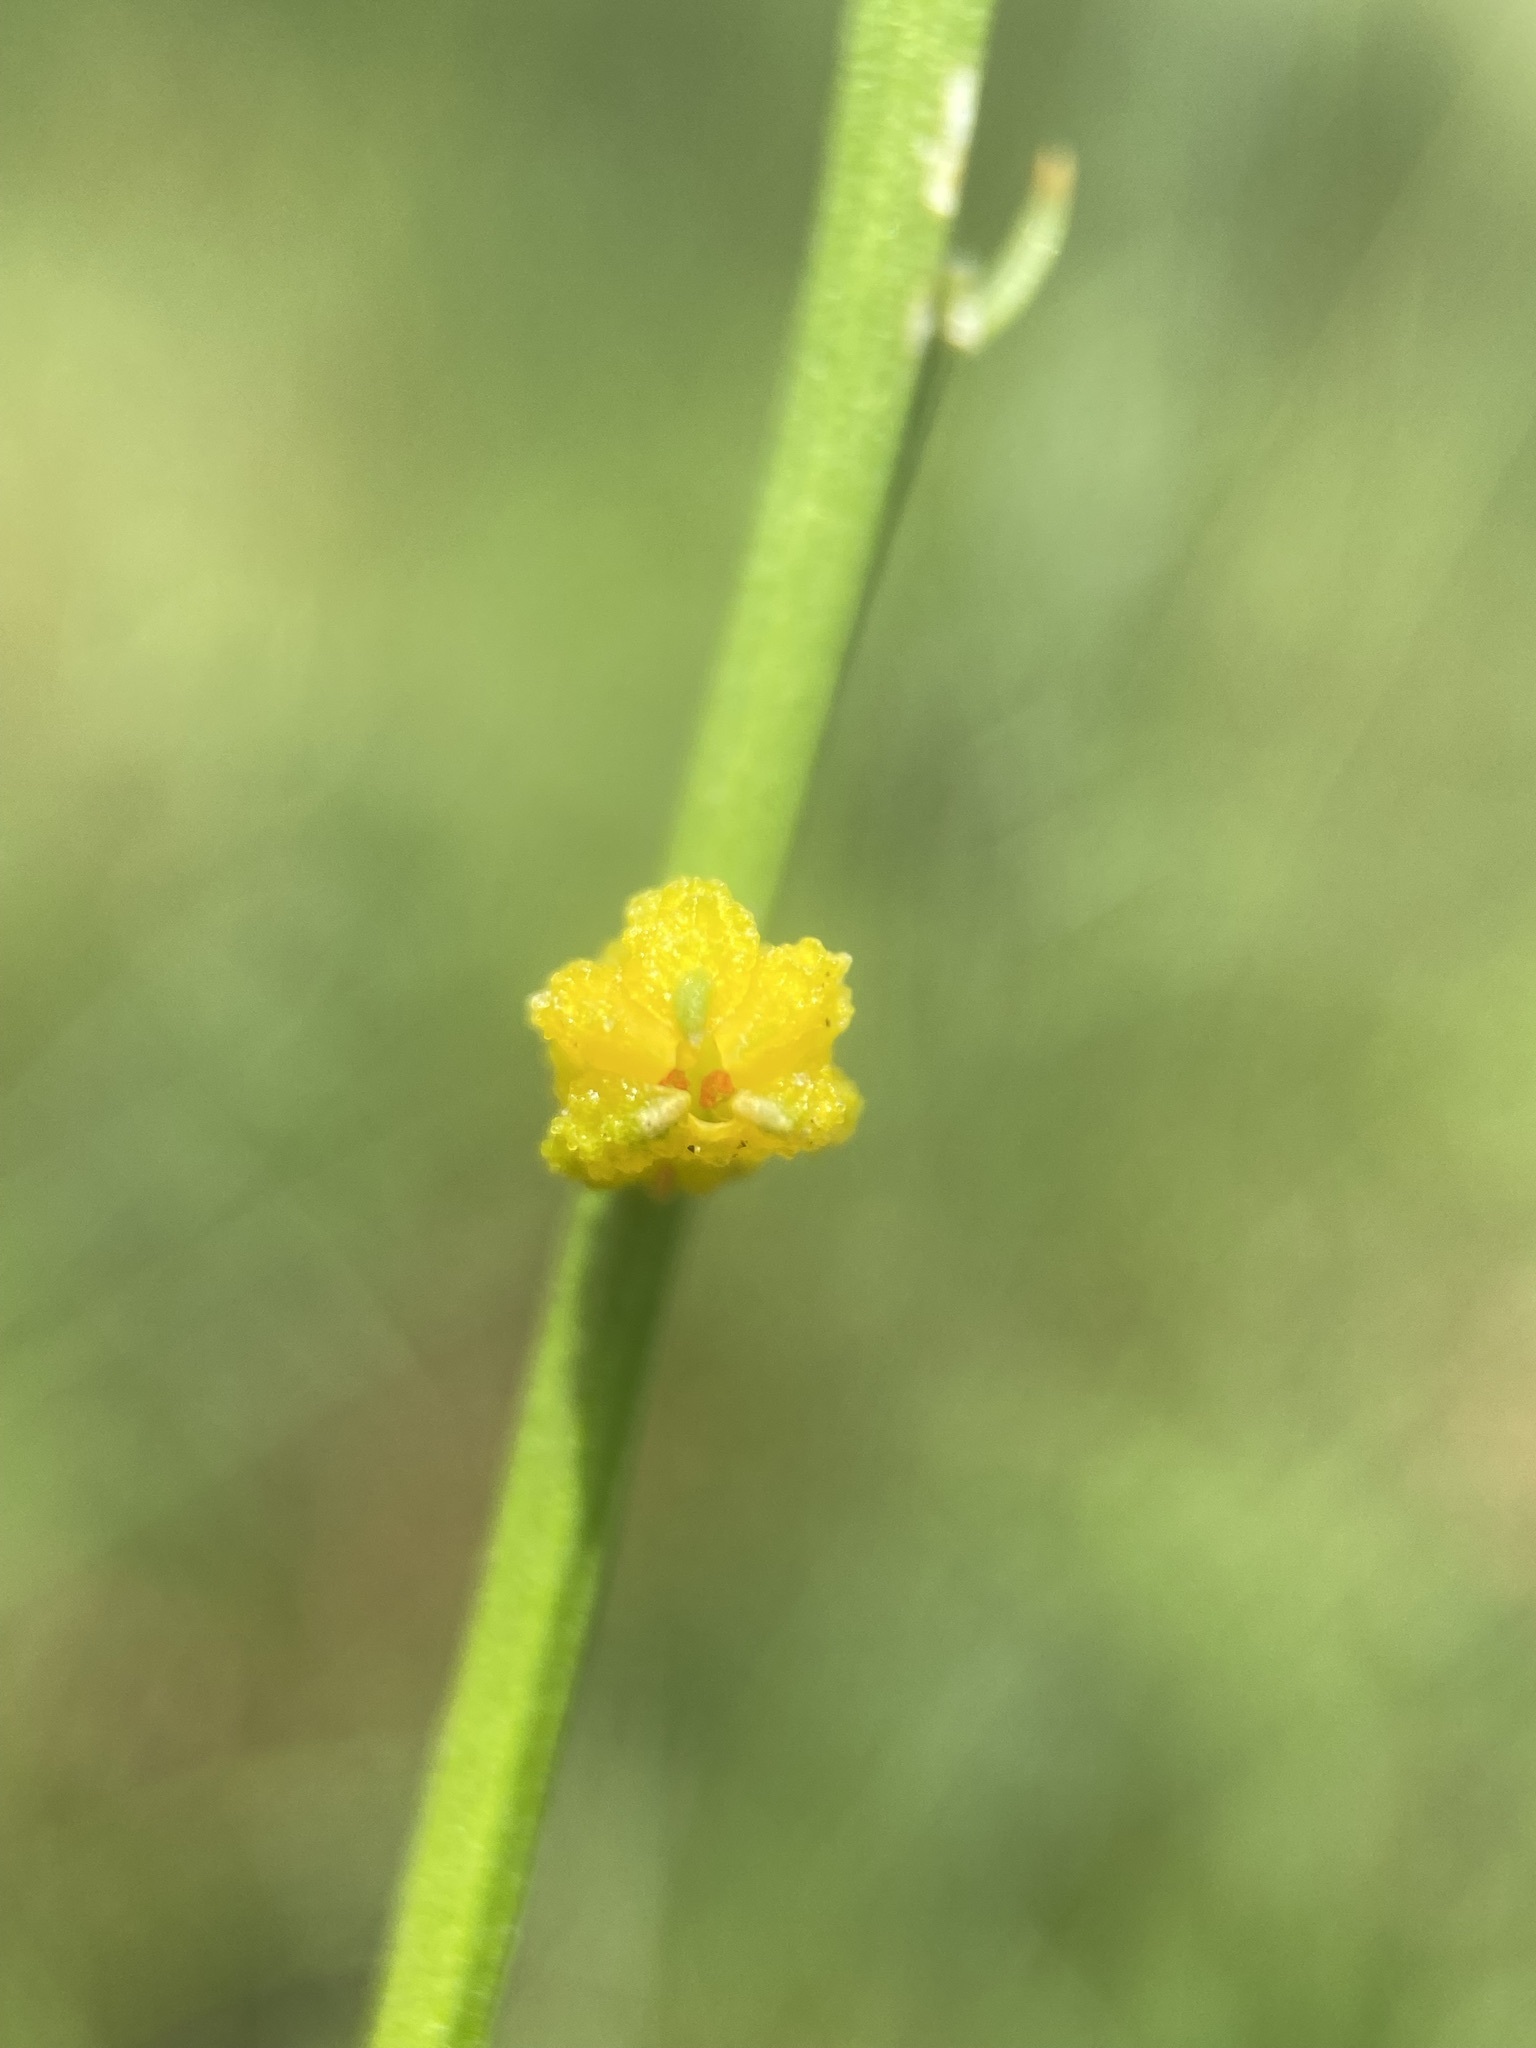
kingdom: Plantae
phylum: Tracheophyta
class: Liliopsida
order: Dioscoreales
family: Nartheciaceae
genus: Aletris
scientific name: Aletris aurea
